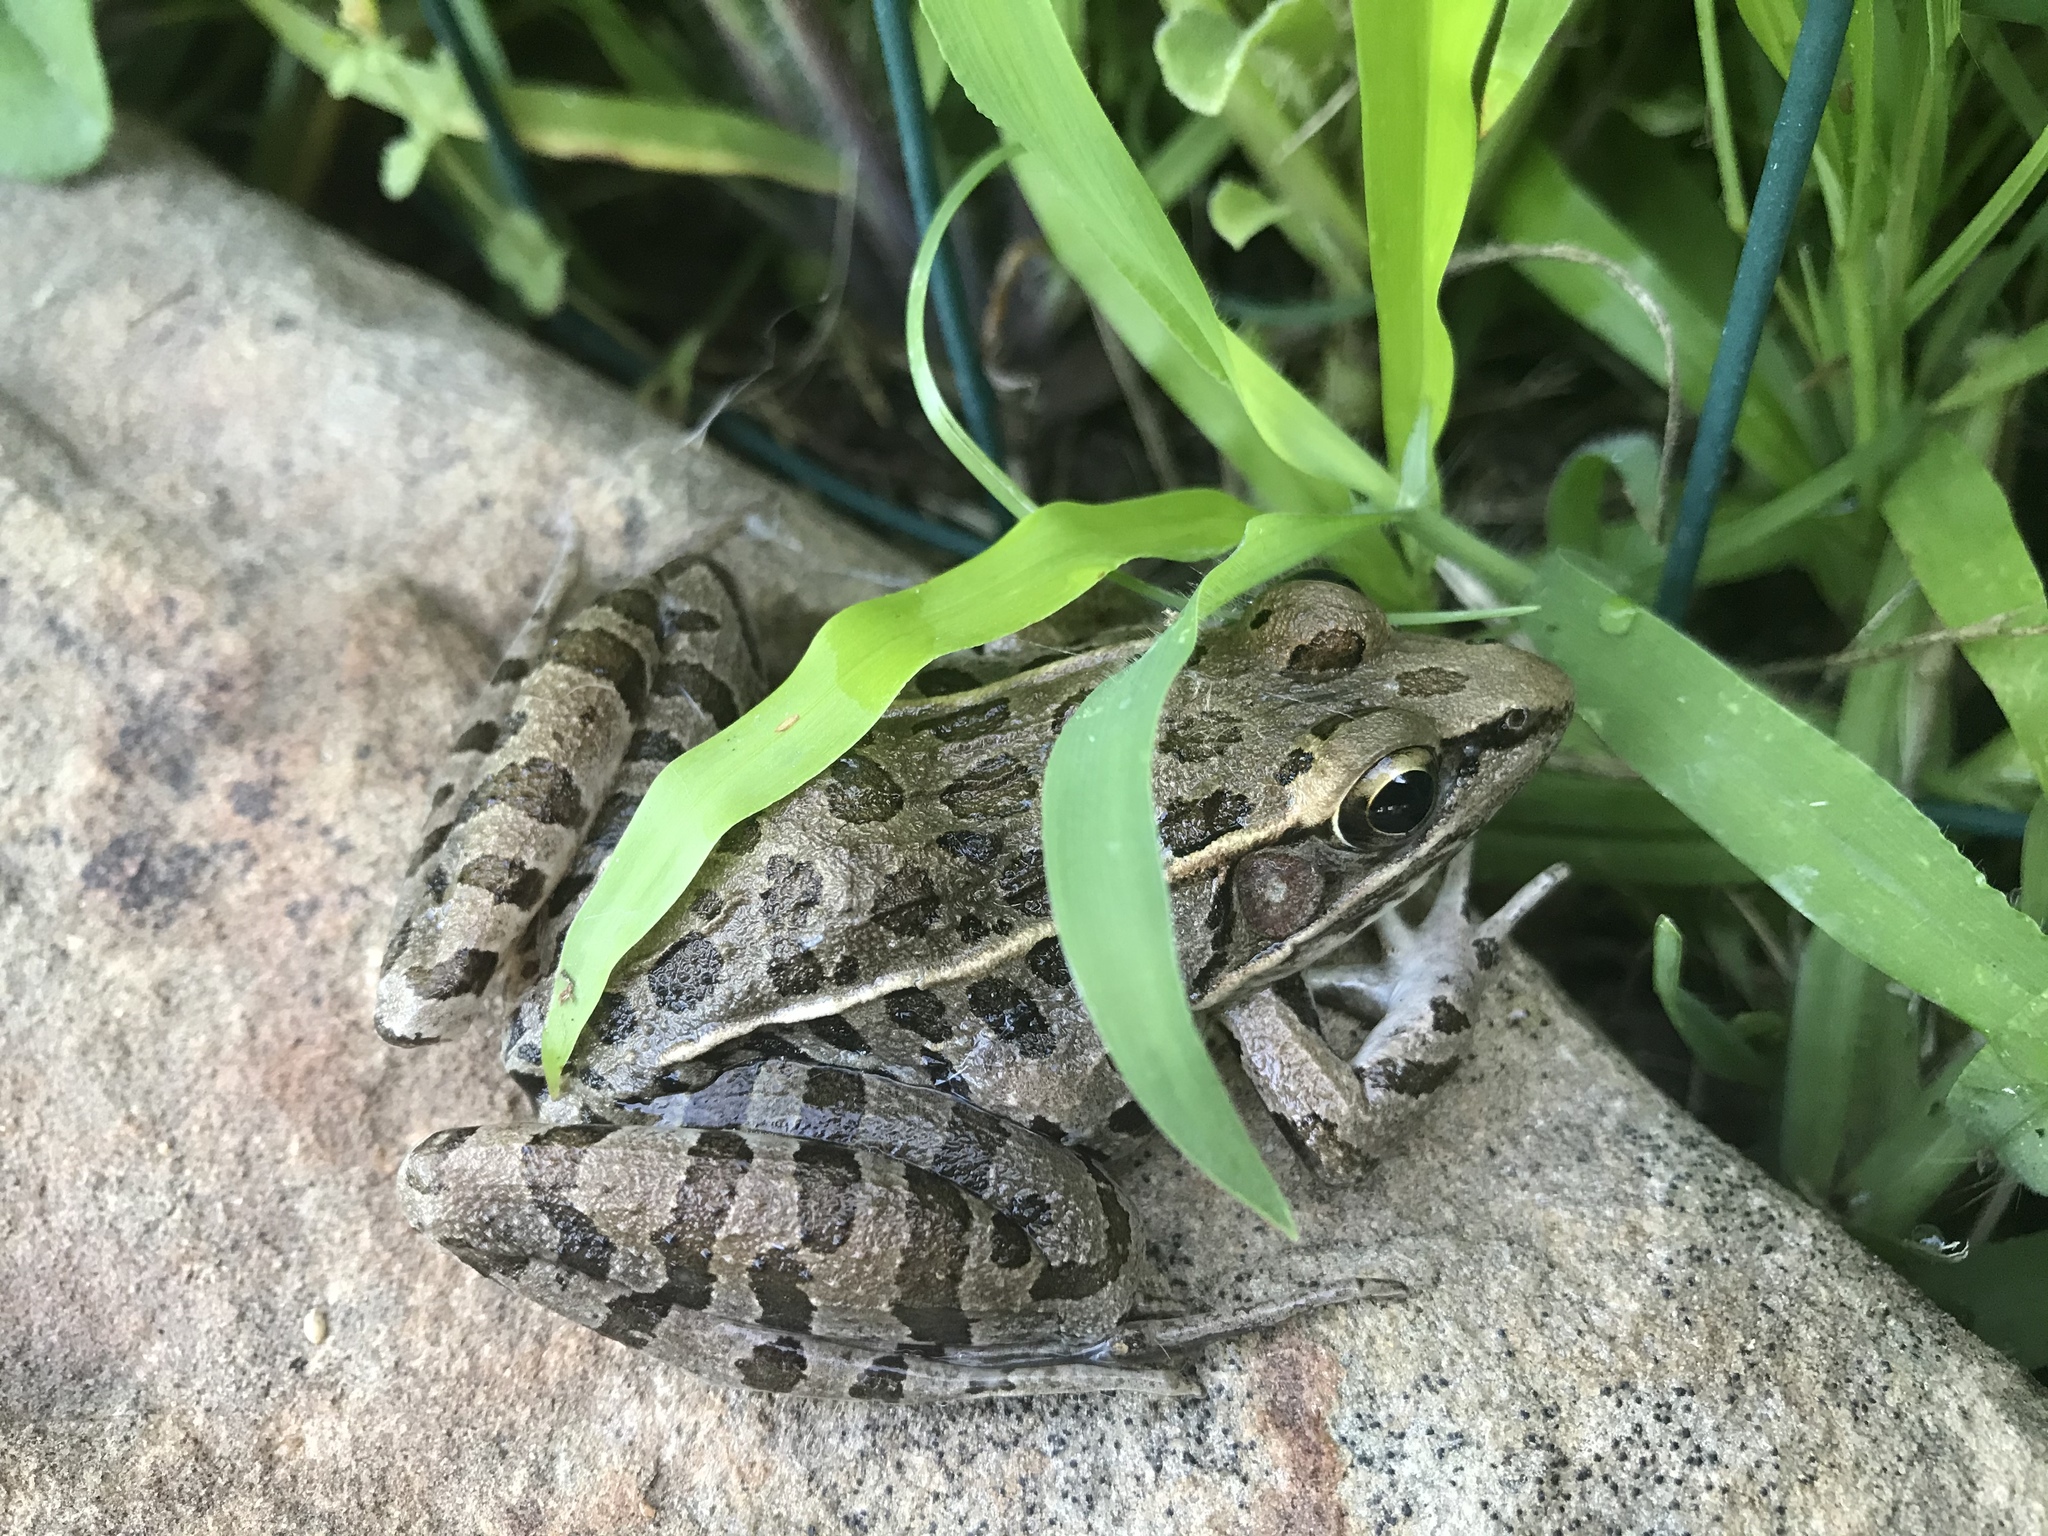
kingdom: Animalia
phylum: Chordata
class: Amphibia
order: Anura
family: Ranidae
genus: Lithobates
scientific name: Lithobates sphenocephalus
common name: Southern leopard frog
